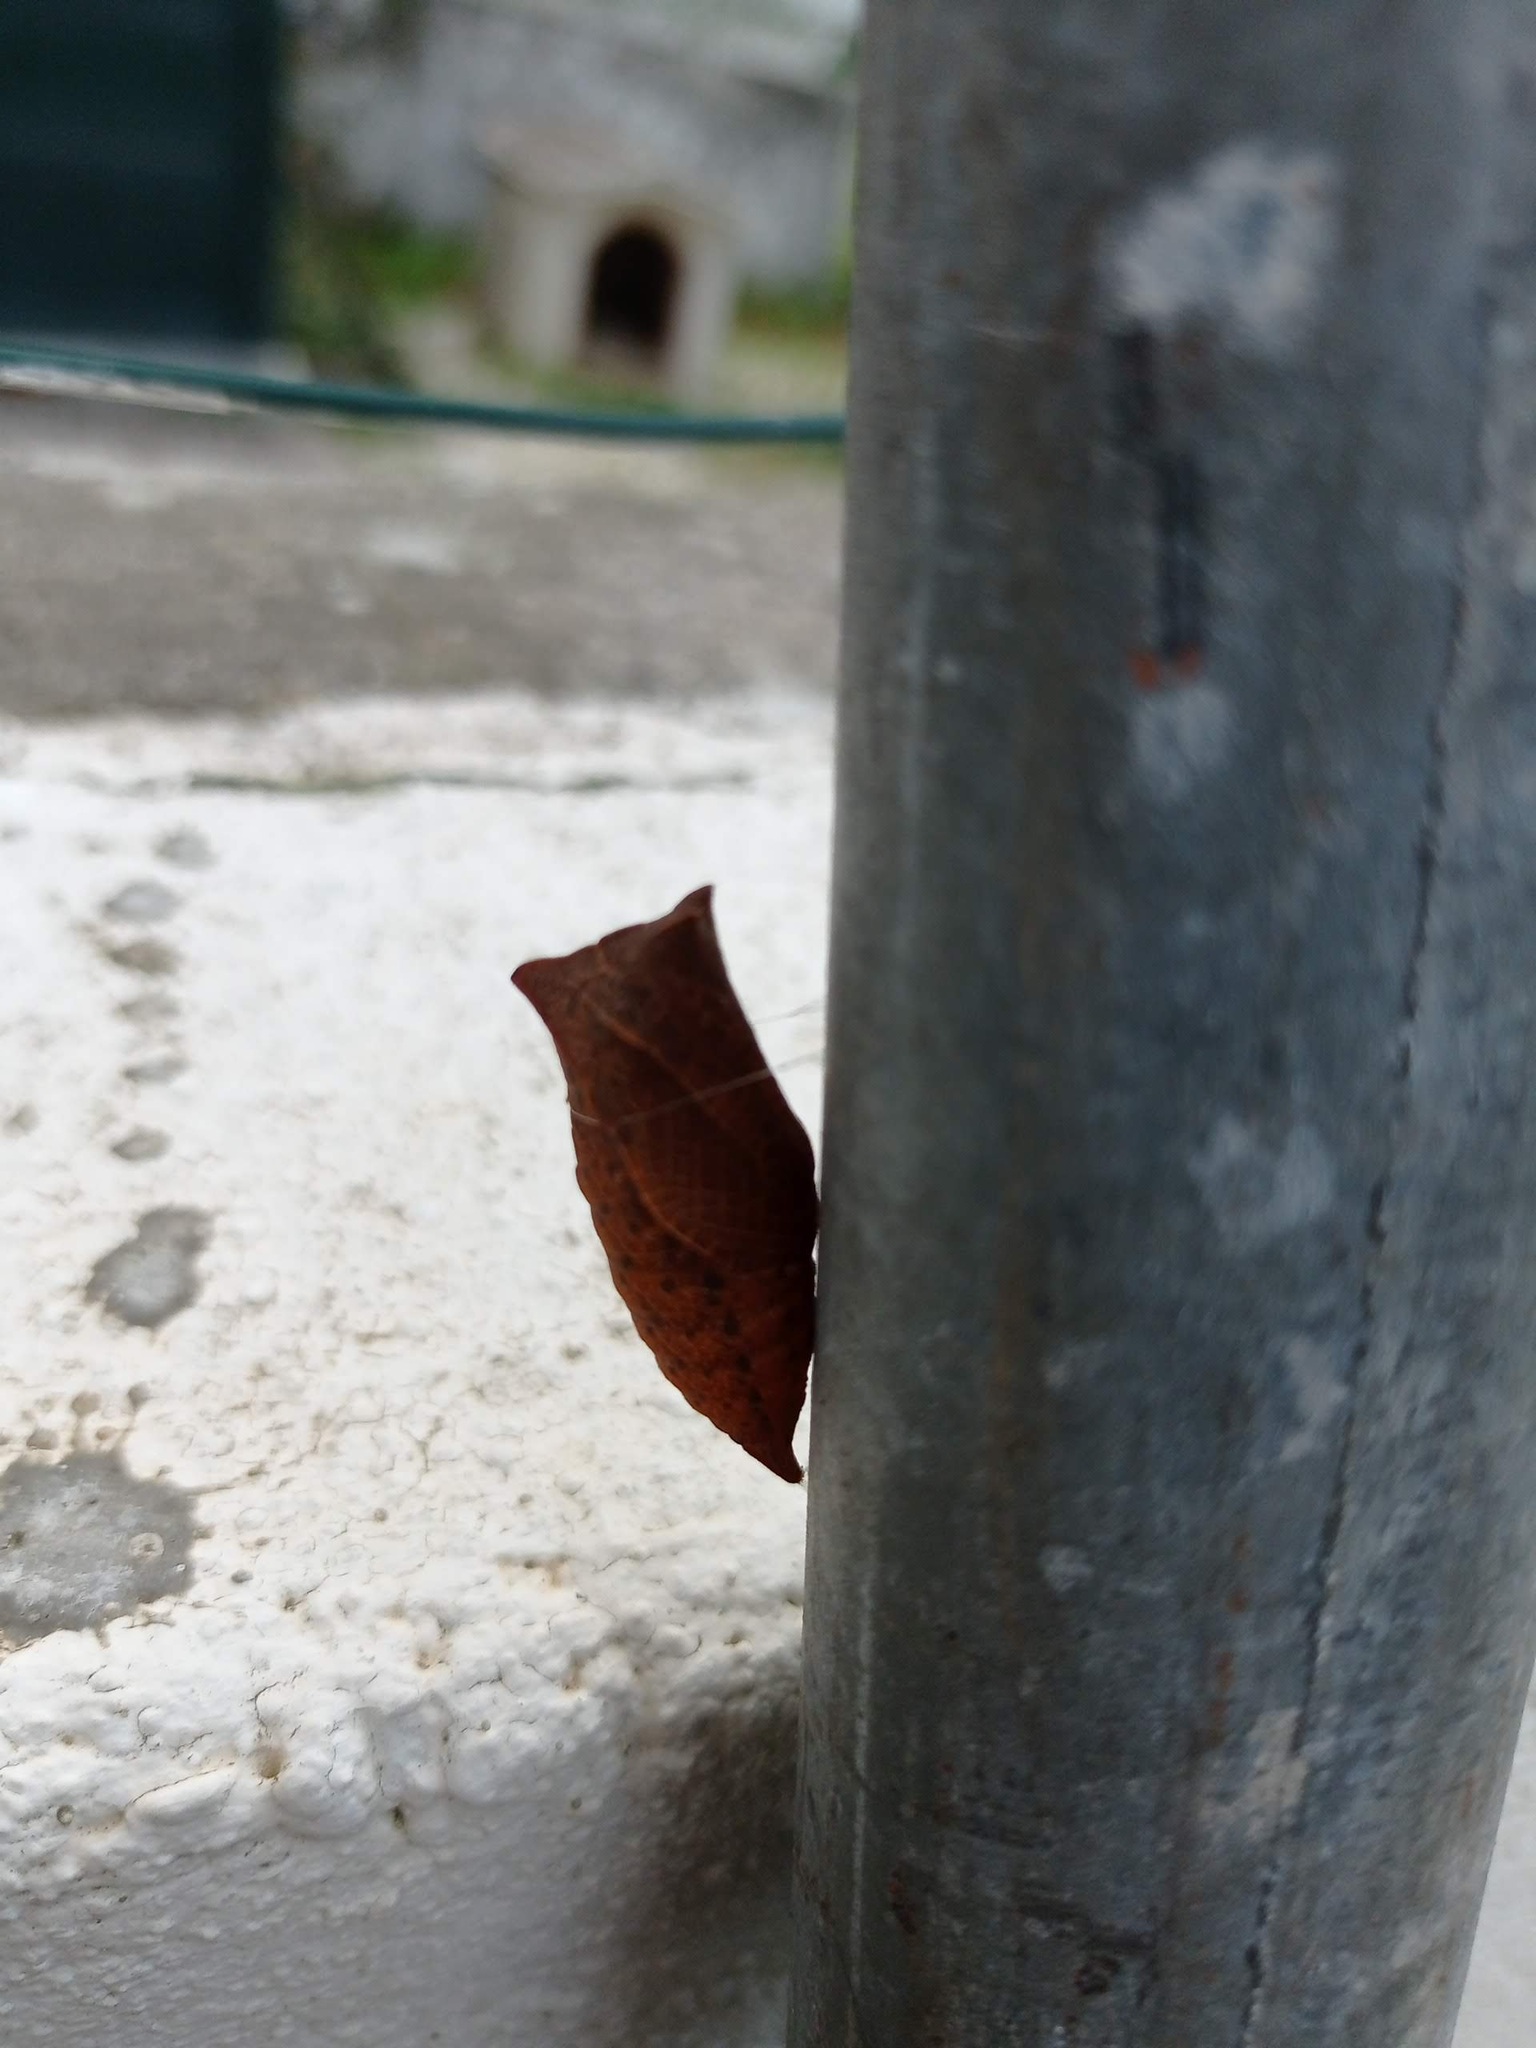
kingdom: Animalia
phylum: Arthropoda
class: Insecta
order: Lepidoptera
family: Papilionidae
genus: Iphiclides
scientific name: Iphiclides feisthamelii
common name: Iberian scarce swallowtail
